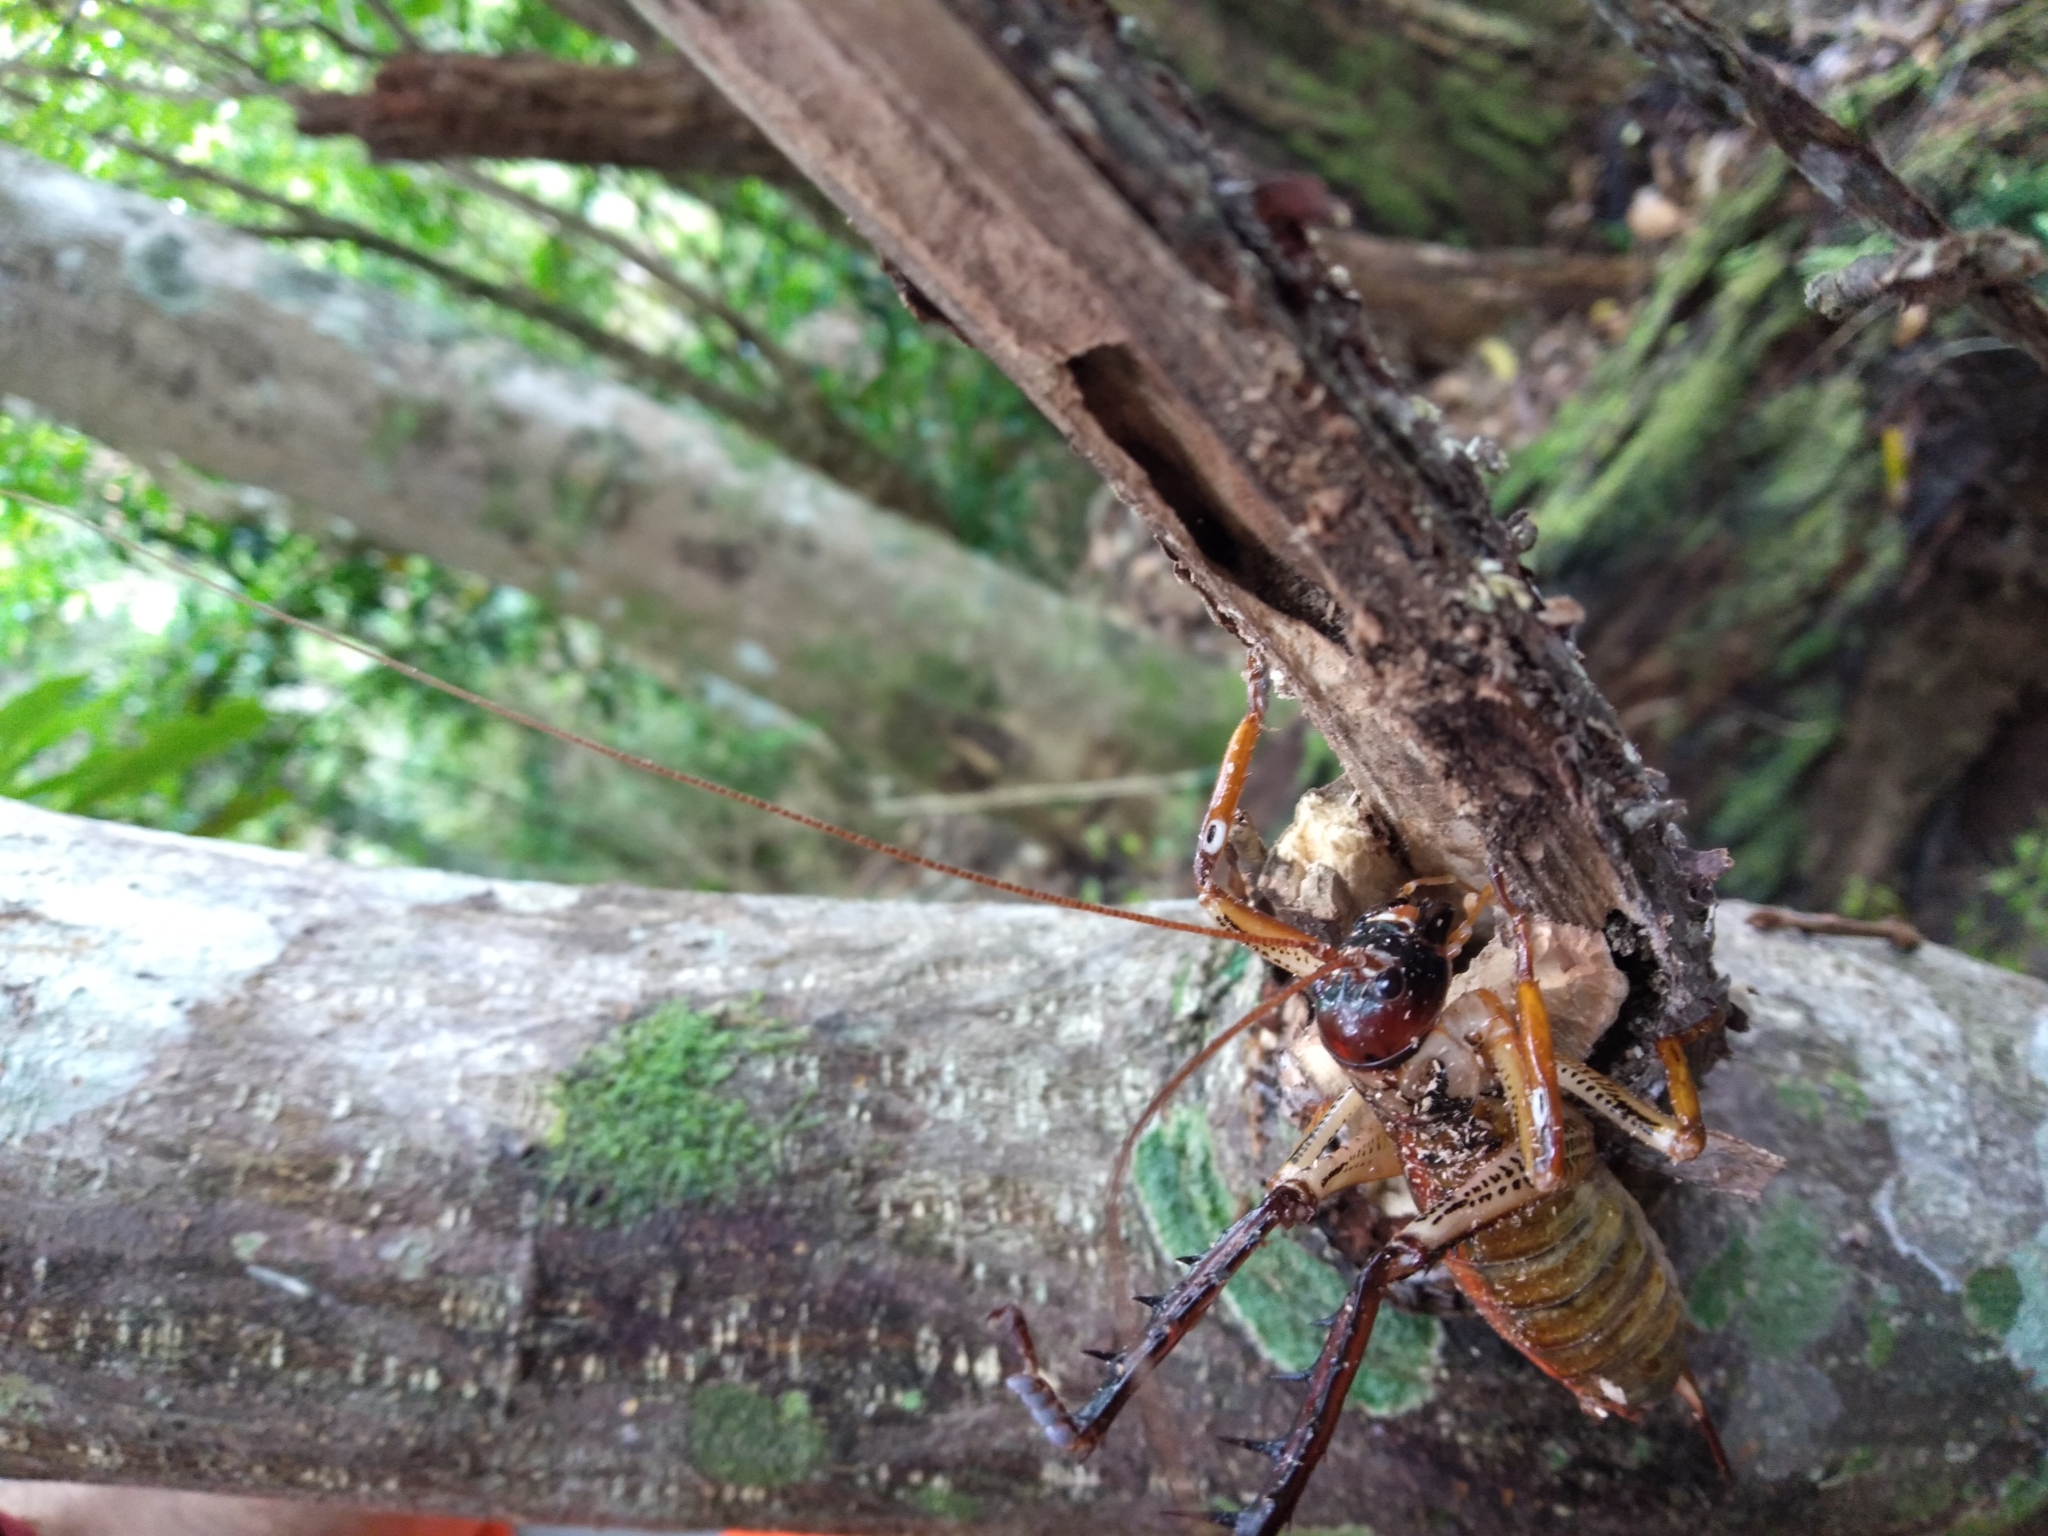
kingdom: Animalia
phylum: Arthropoda
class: Insecta
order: Orthoptera
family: Anostostomatidae
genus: Hemideina
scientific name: Hemideina thoracica
